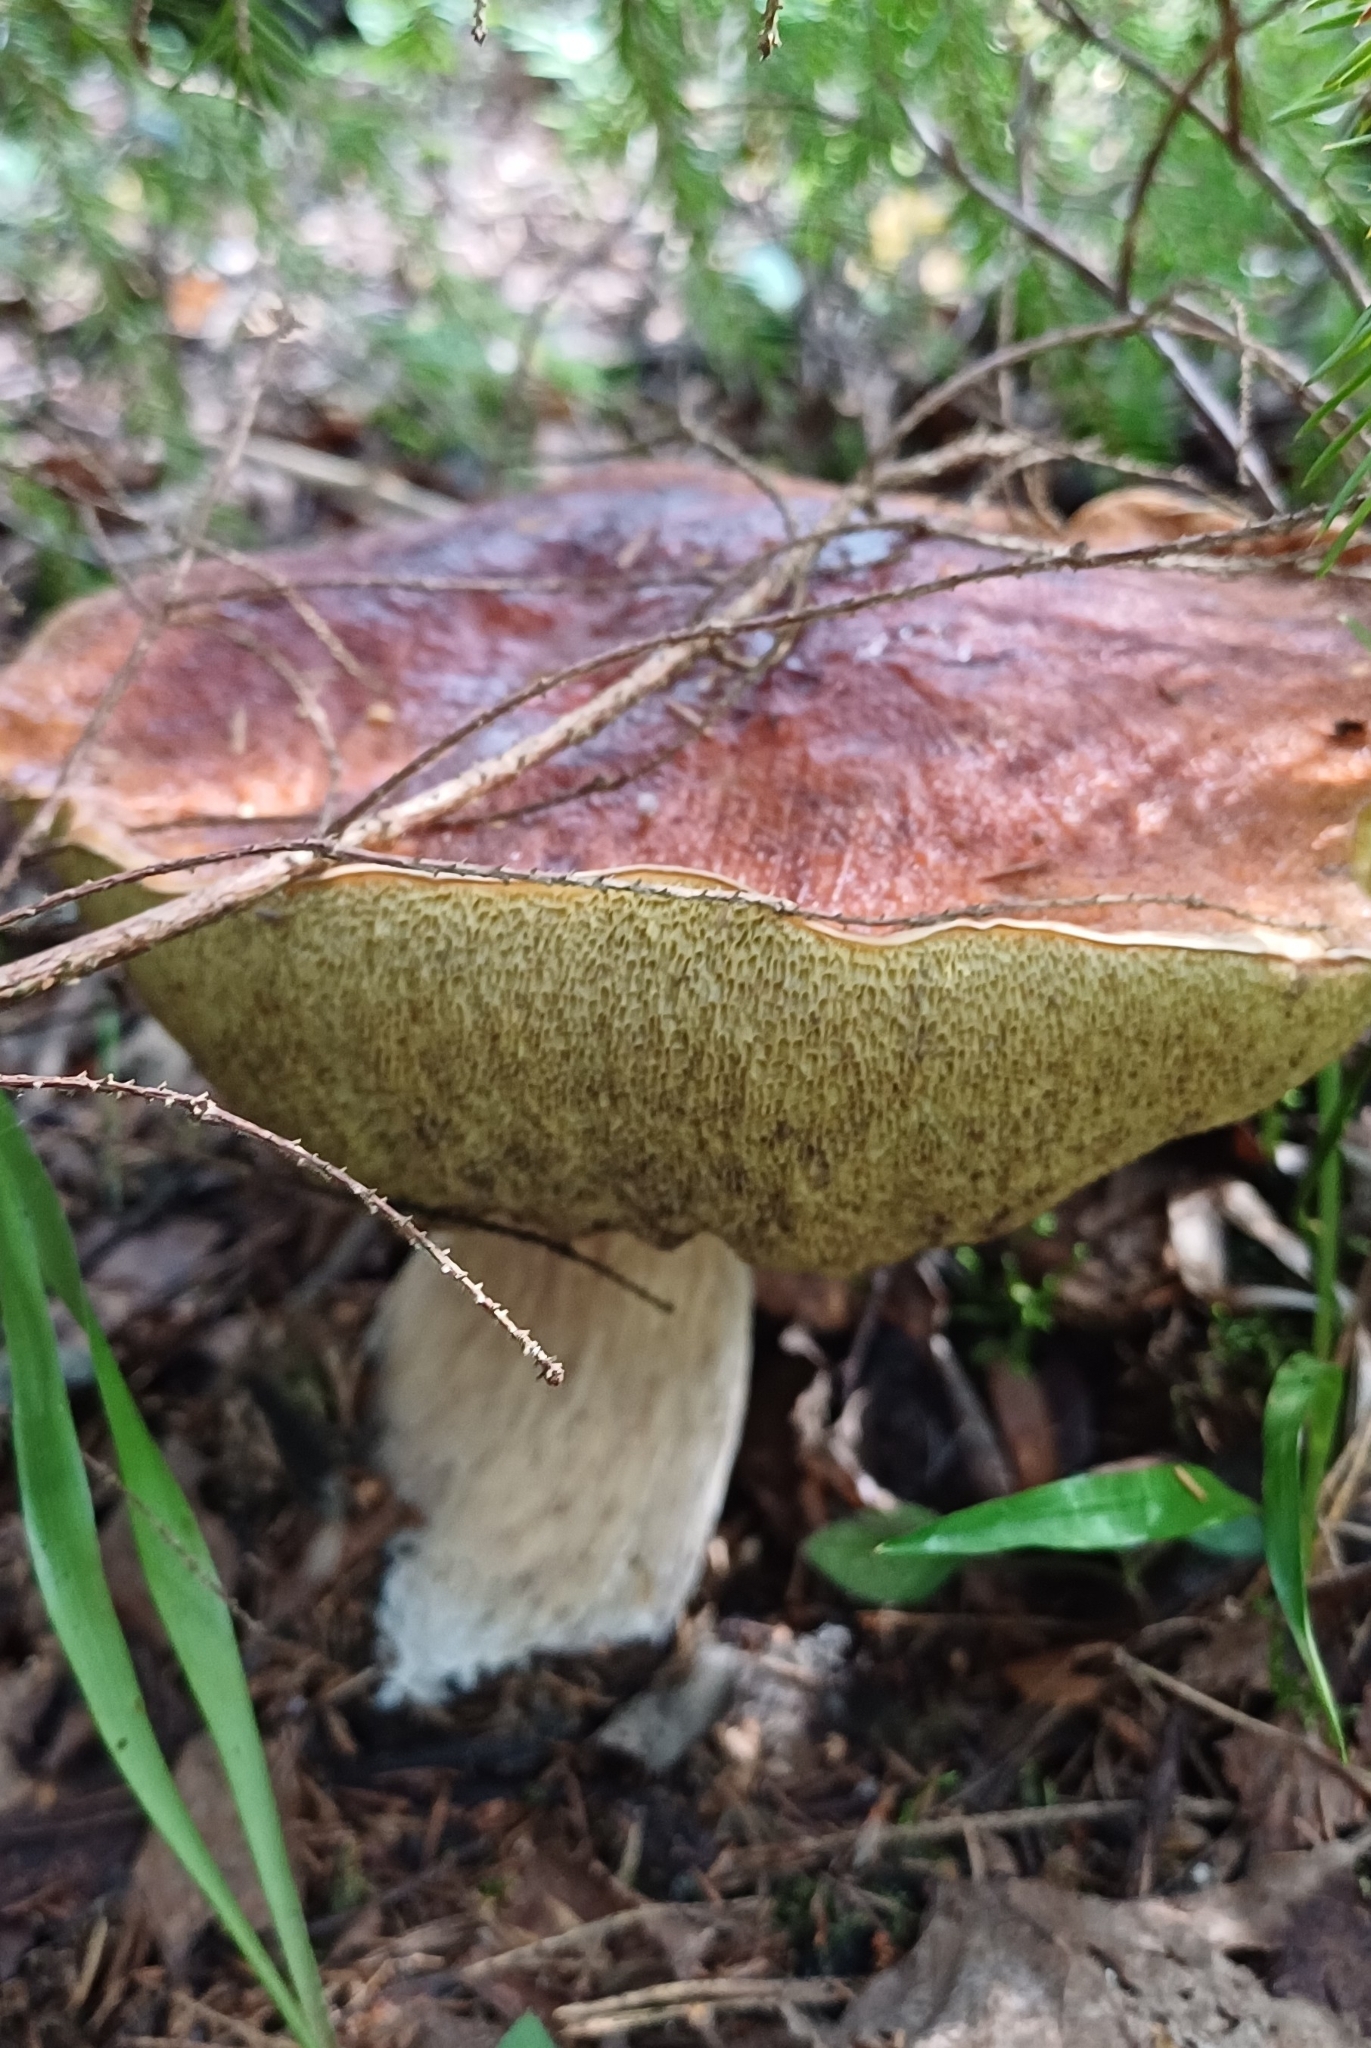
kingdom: Fungi
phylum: Basidiomycota
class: Agaricomycetes
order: Boletales
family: Boletaceae
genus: Boletus
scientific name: Boletus edulis
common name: Cep
